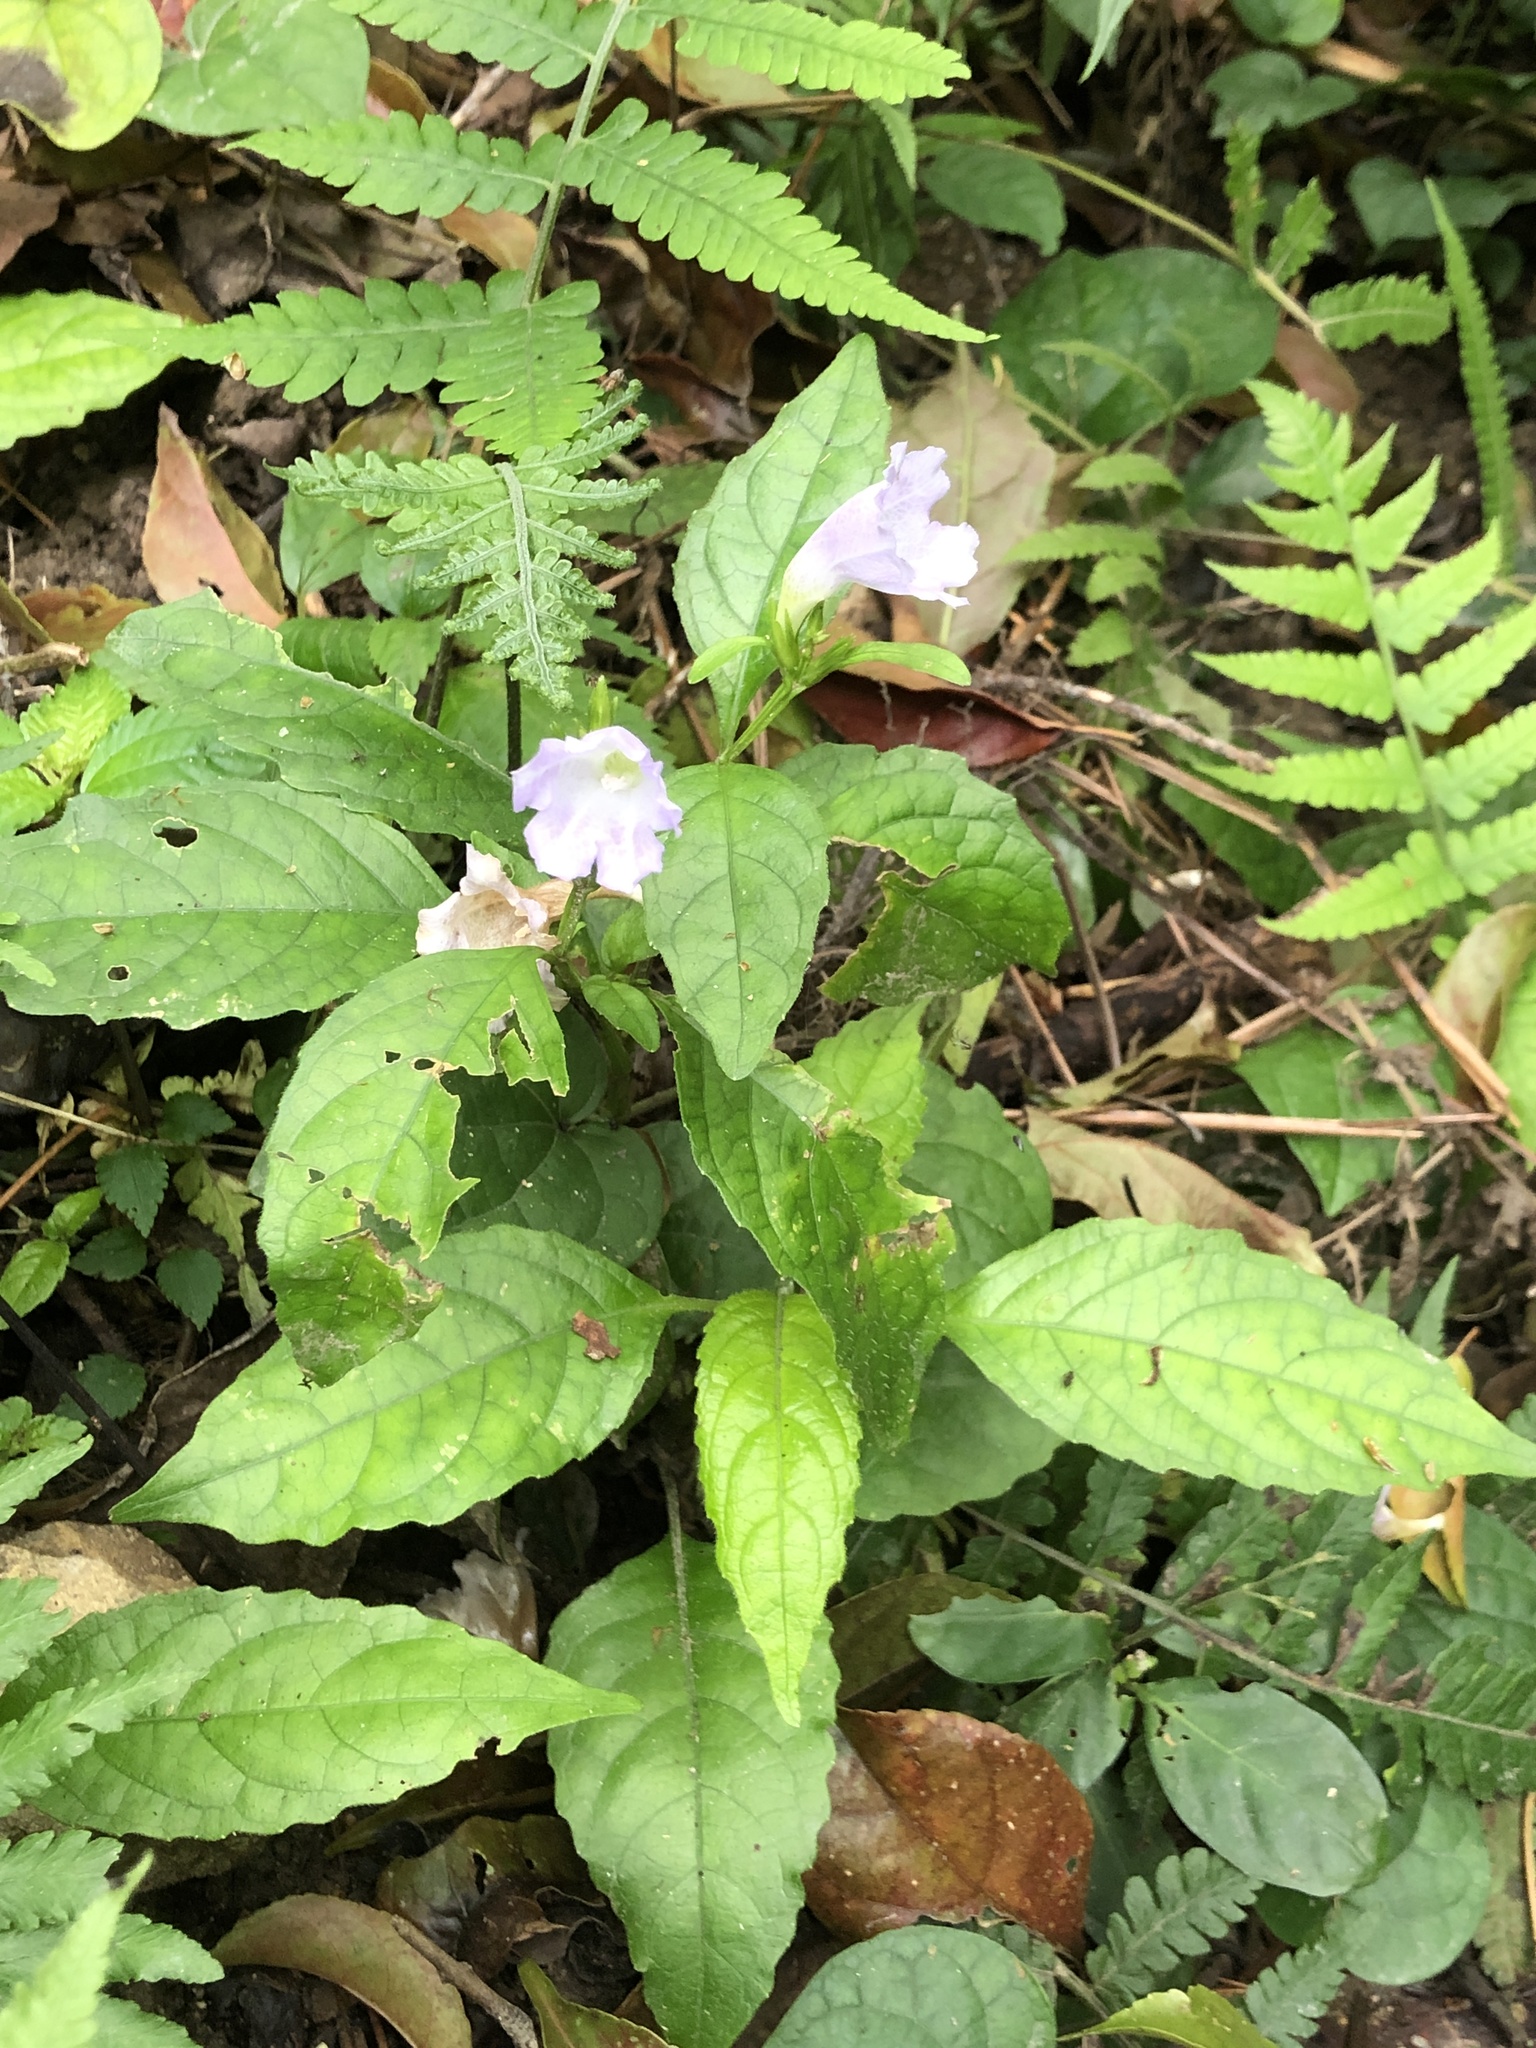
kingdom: Plantae
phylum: Tracheophyta
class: Magnoliopsida
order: Lamiales
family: Acanthaceae
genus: Strobilanthes
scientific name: Strobilanthes flexicaulis
